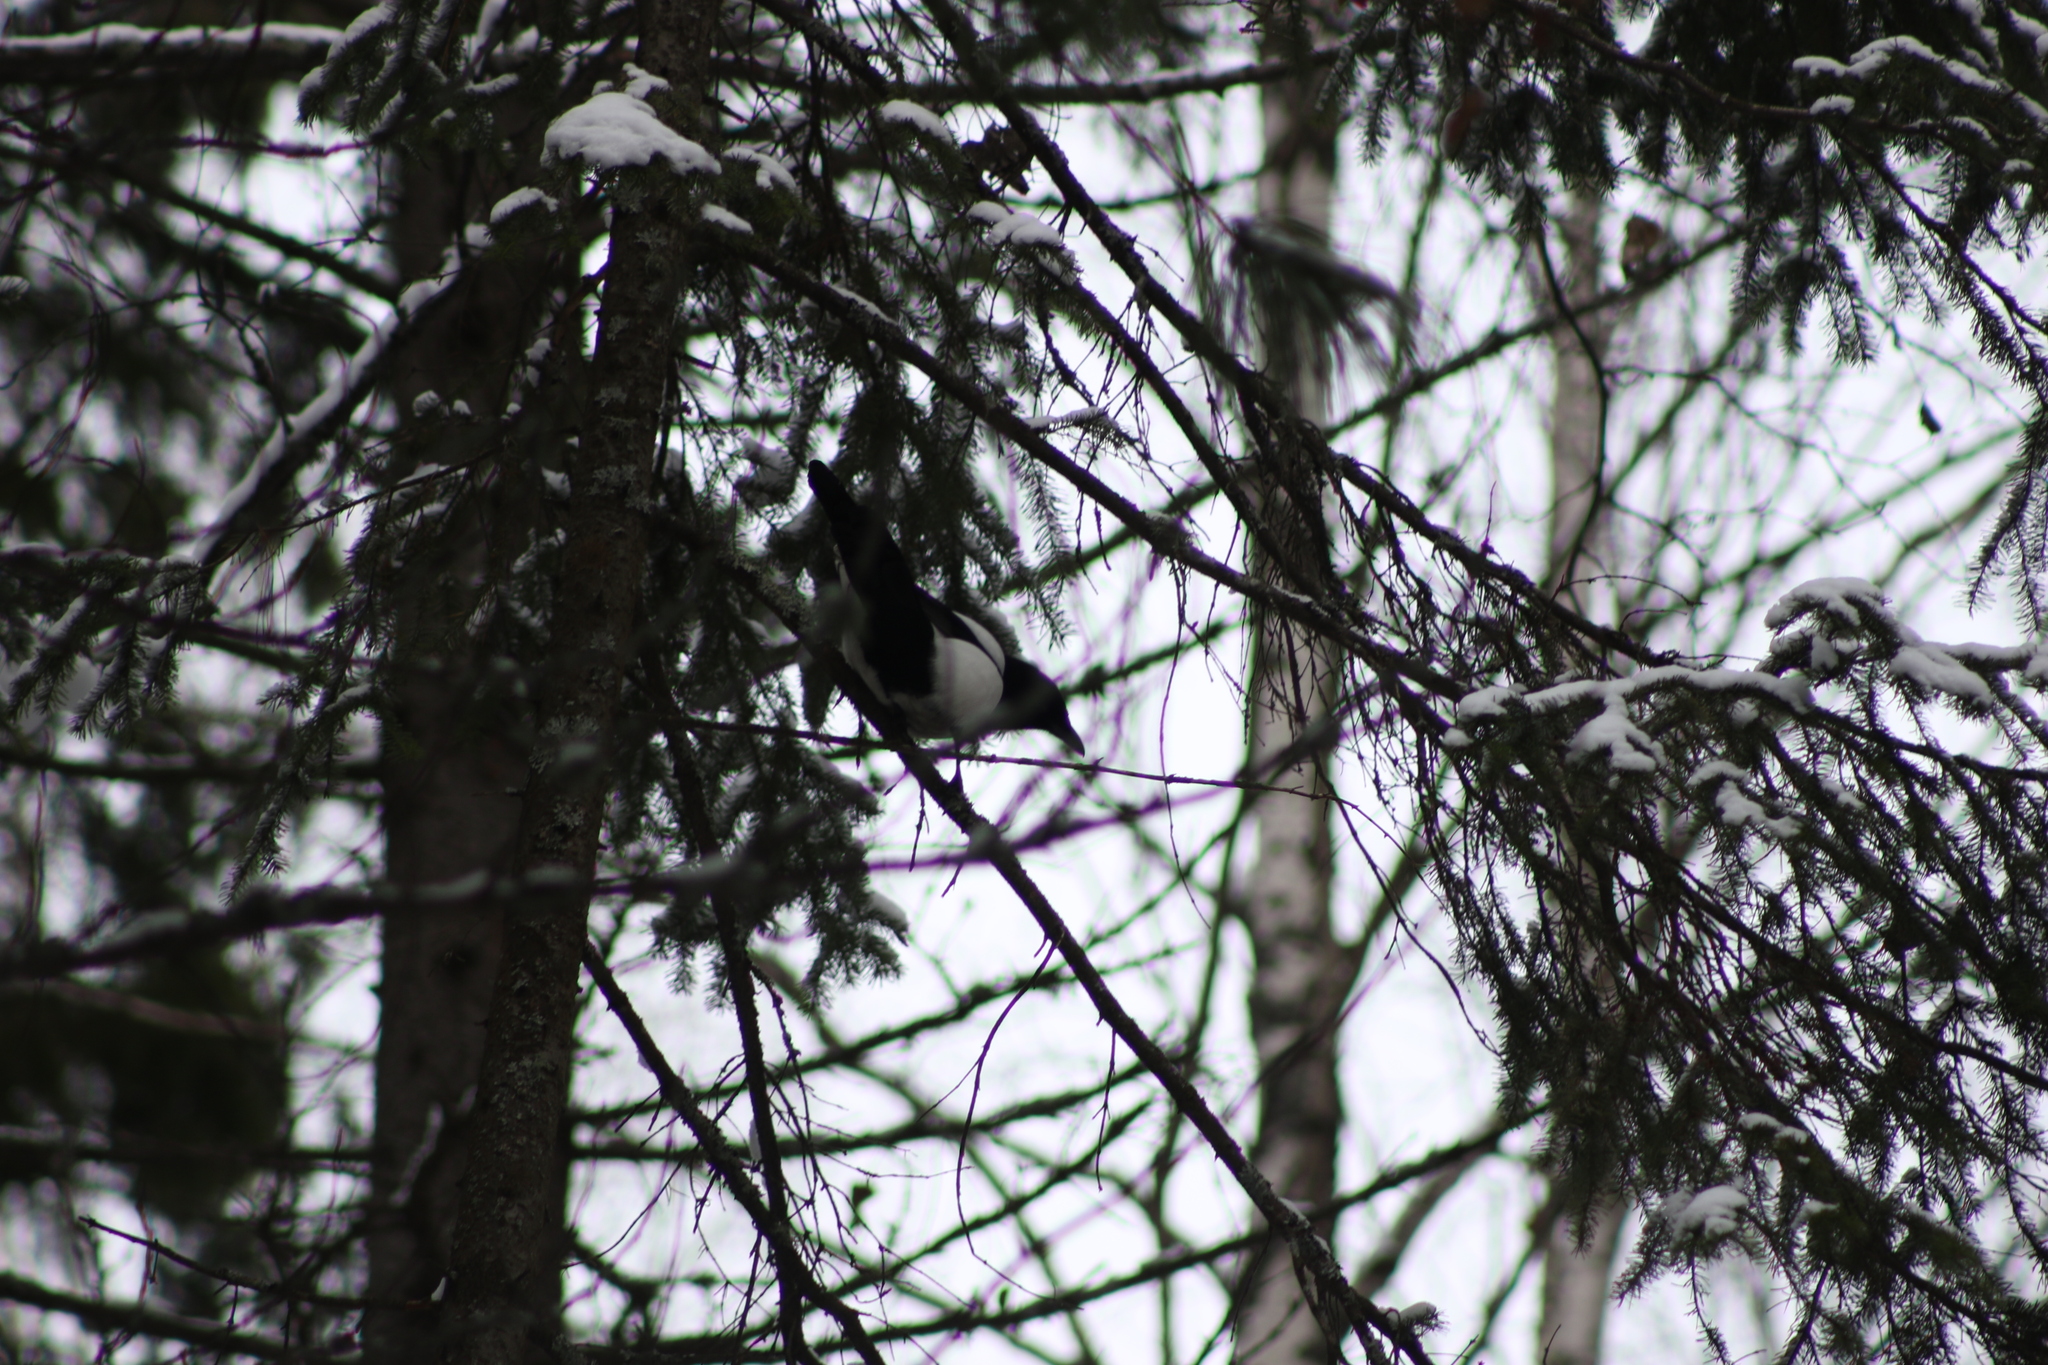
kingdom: Animalia
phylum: Chordata
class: Aves
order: Passeriformes
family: Corvidae
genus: Pica
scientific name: Pica pica
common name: Eurasian magpie
